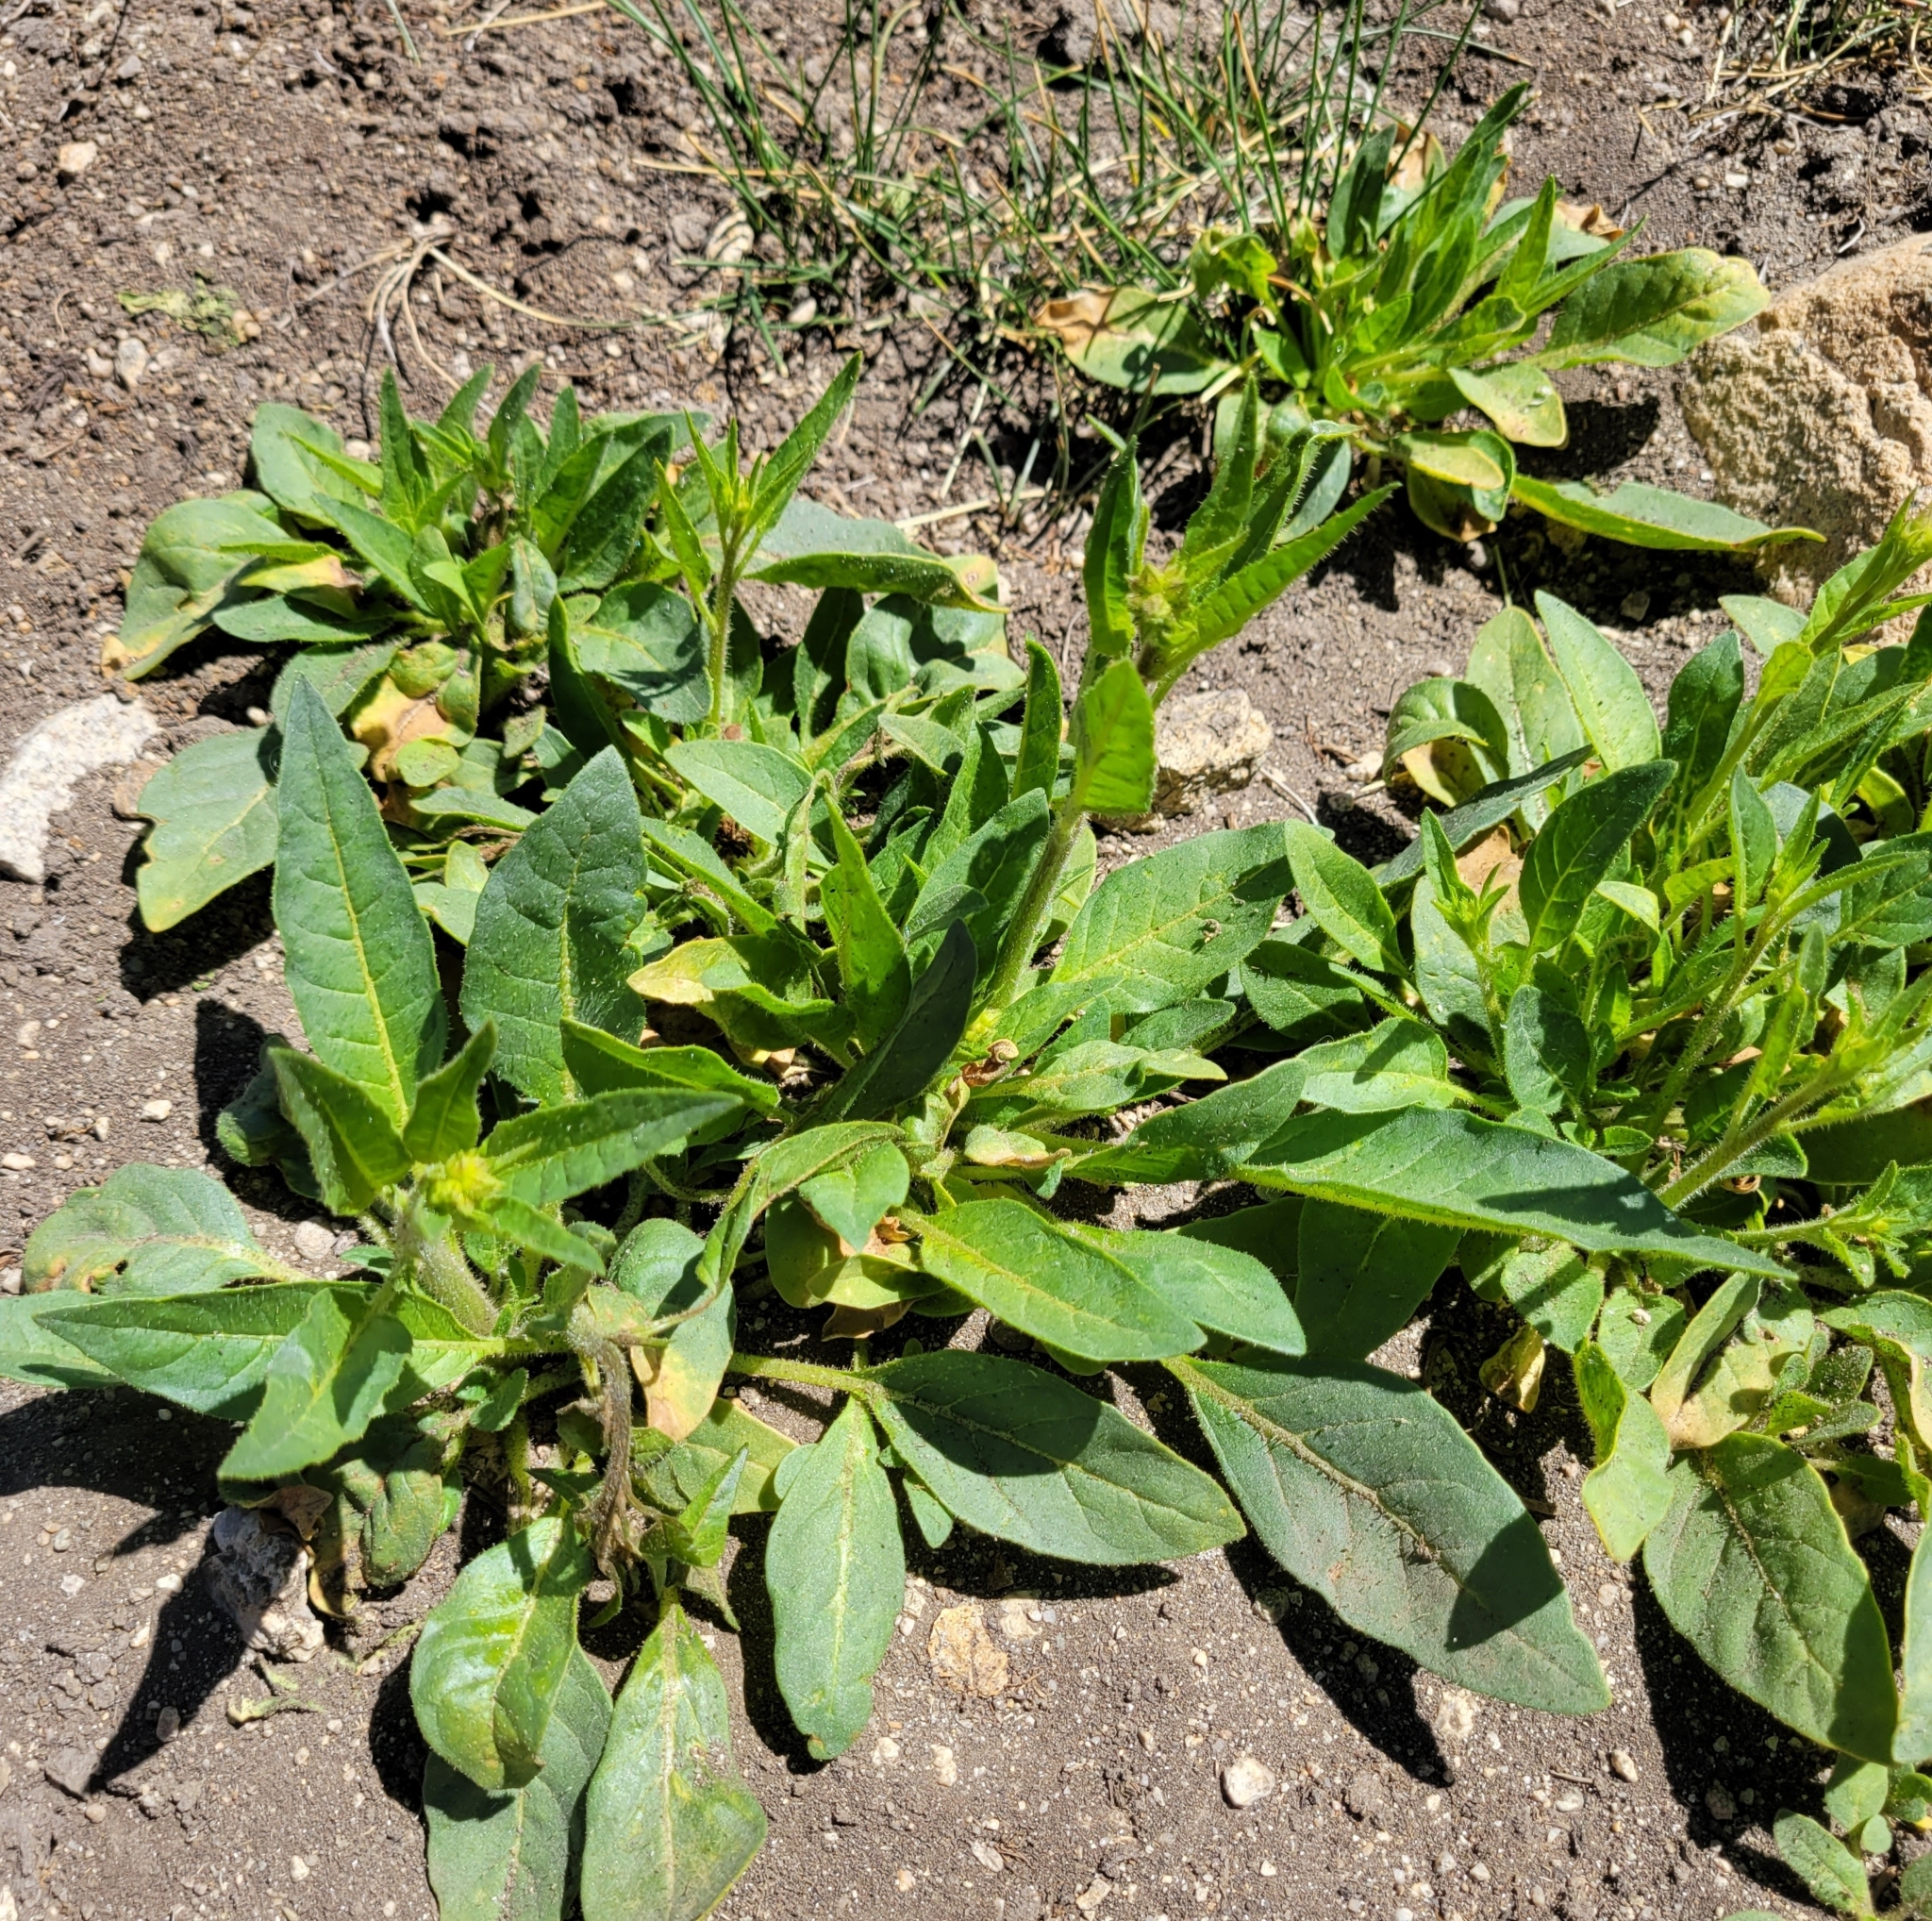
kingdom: Plantae
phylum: Tracheophyta
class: Magnoliopsida
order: Solanales
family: Solanaceae
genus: Nicotiana
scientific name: Nicotiana attenuata
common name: Coyote tobacco
